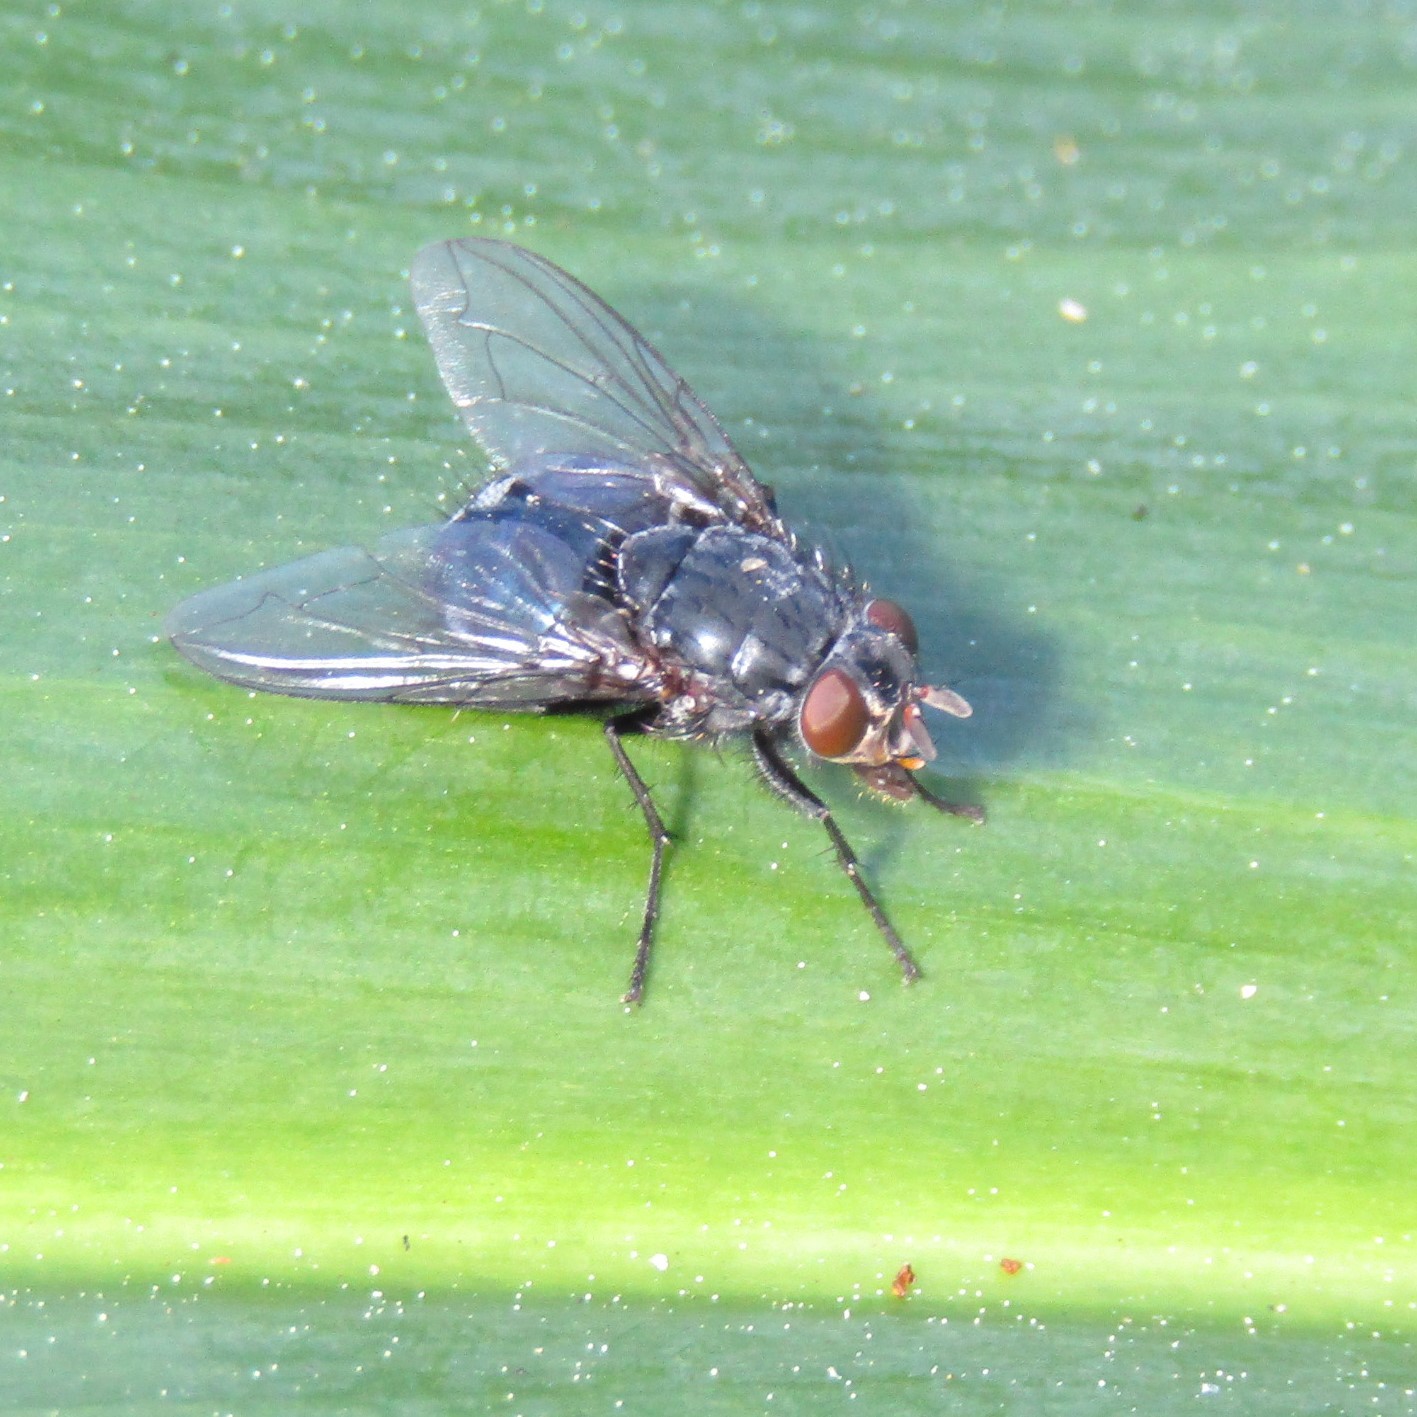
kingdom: Animalia
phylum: Arthropoda
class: Insecta
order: Diptera
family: Calliphoridae
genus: Calliphora
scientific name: Calliphora vicina
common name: Common blow flie
